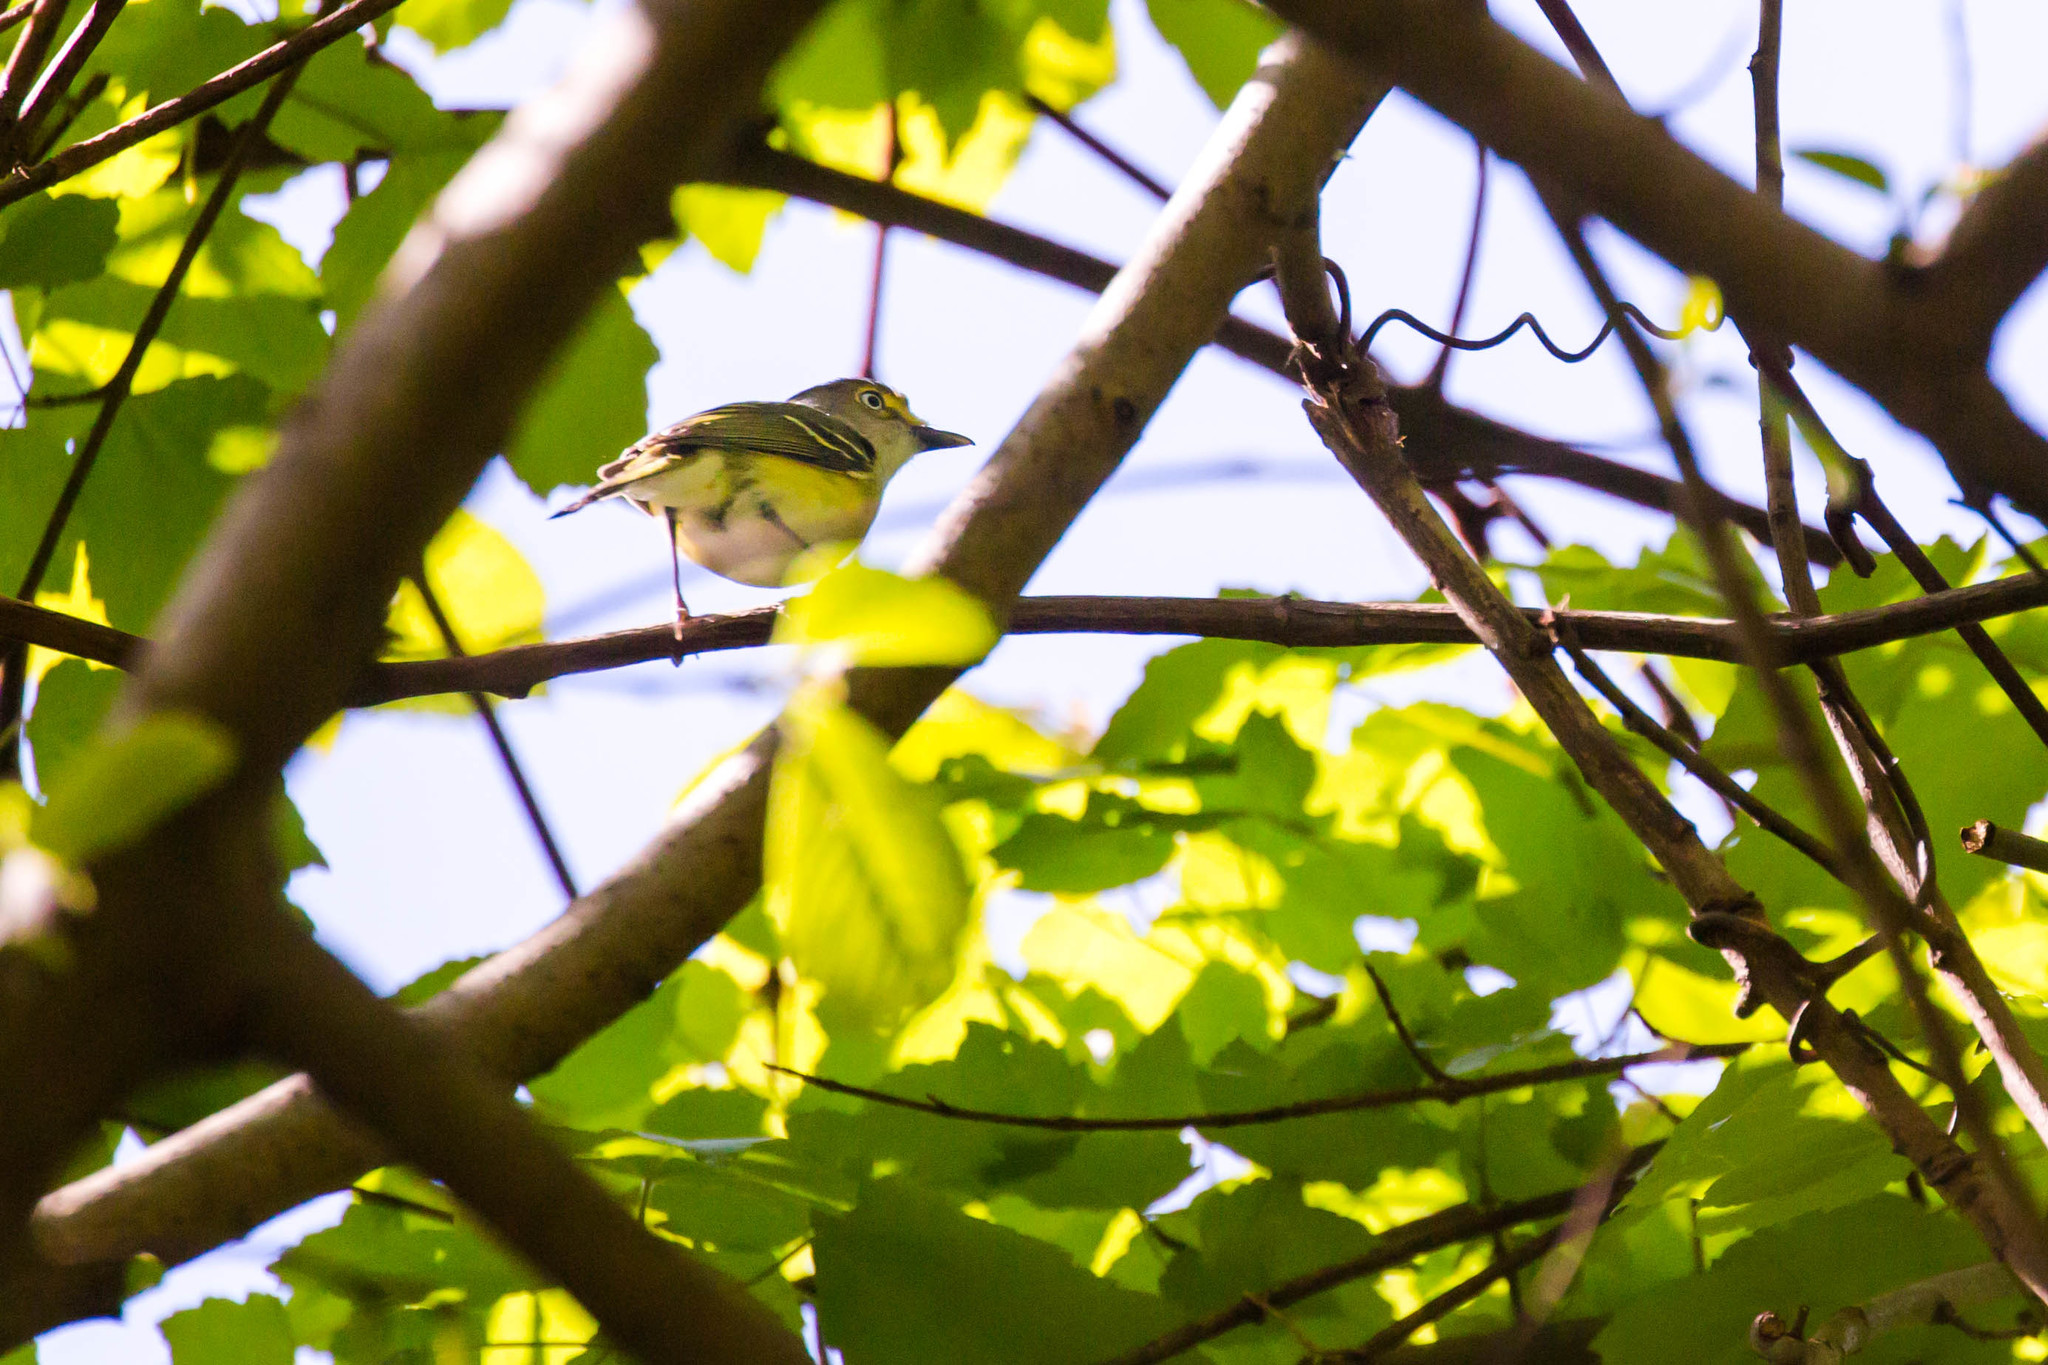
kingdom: Animalia
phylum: Chordata
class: Aves
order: Passeriformes
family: Vireonidae
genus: Vireo
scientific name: Vireo griseus
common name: White-eyed vireo
